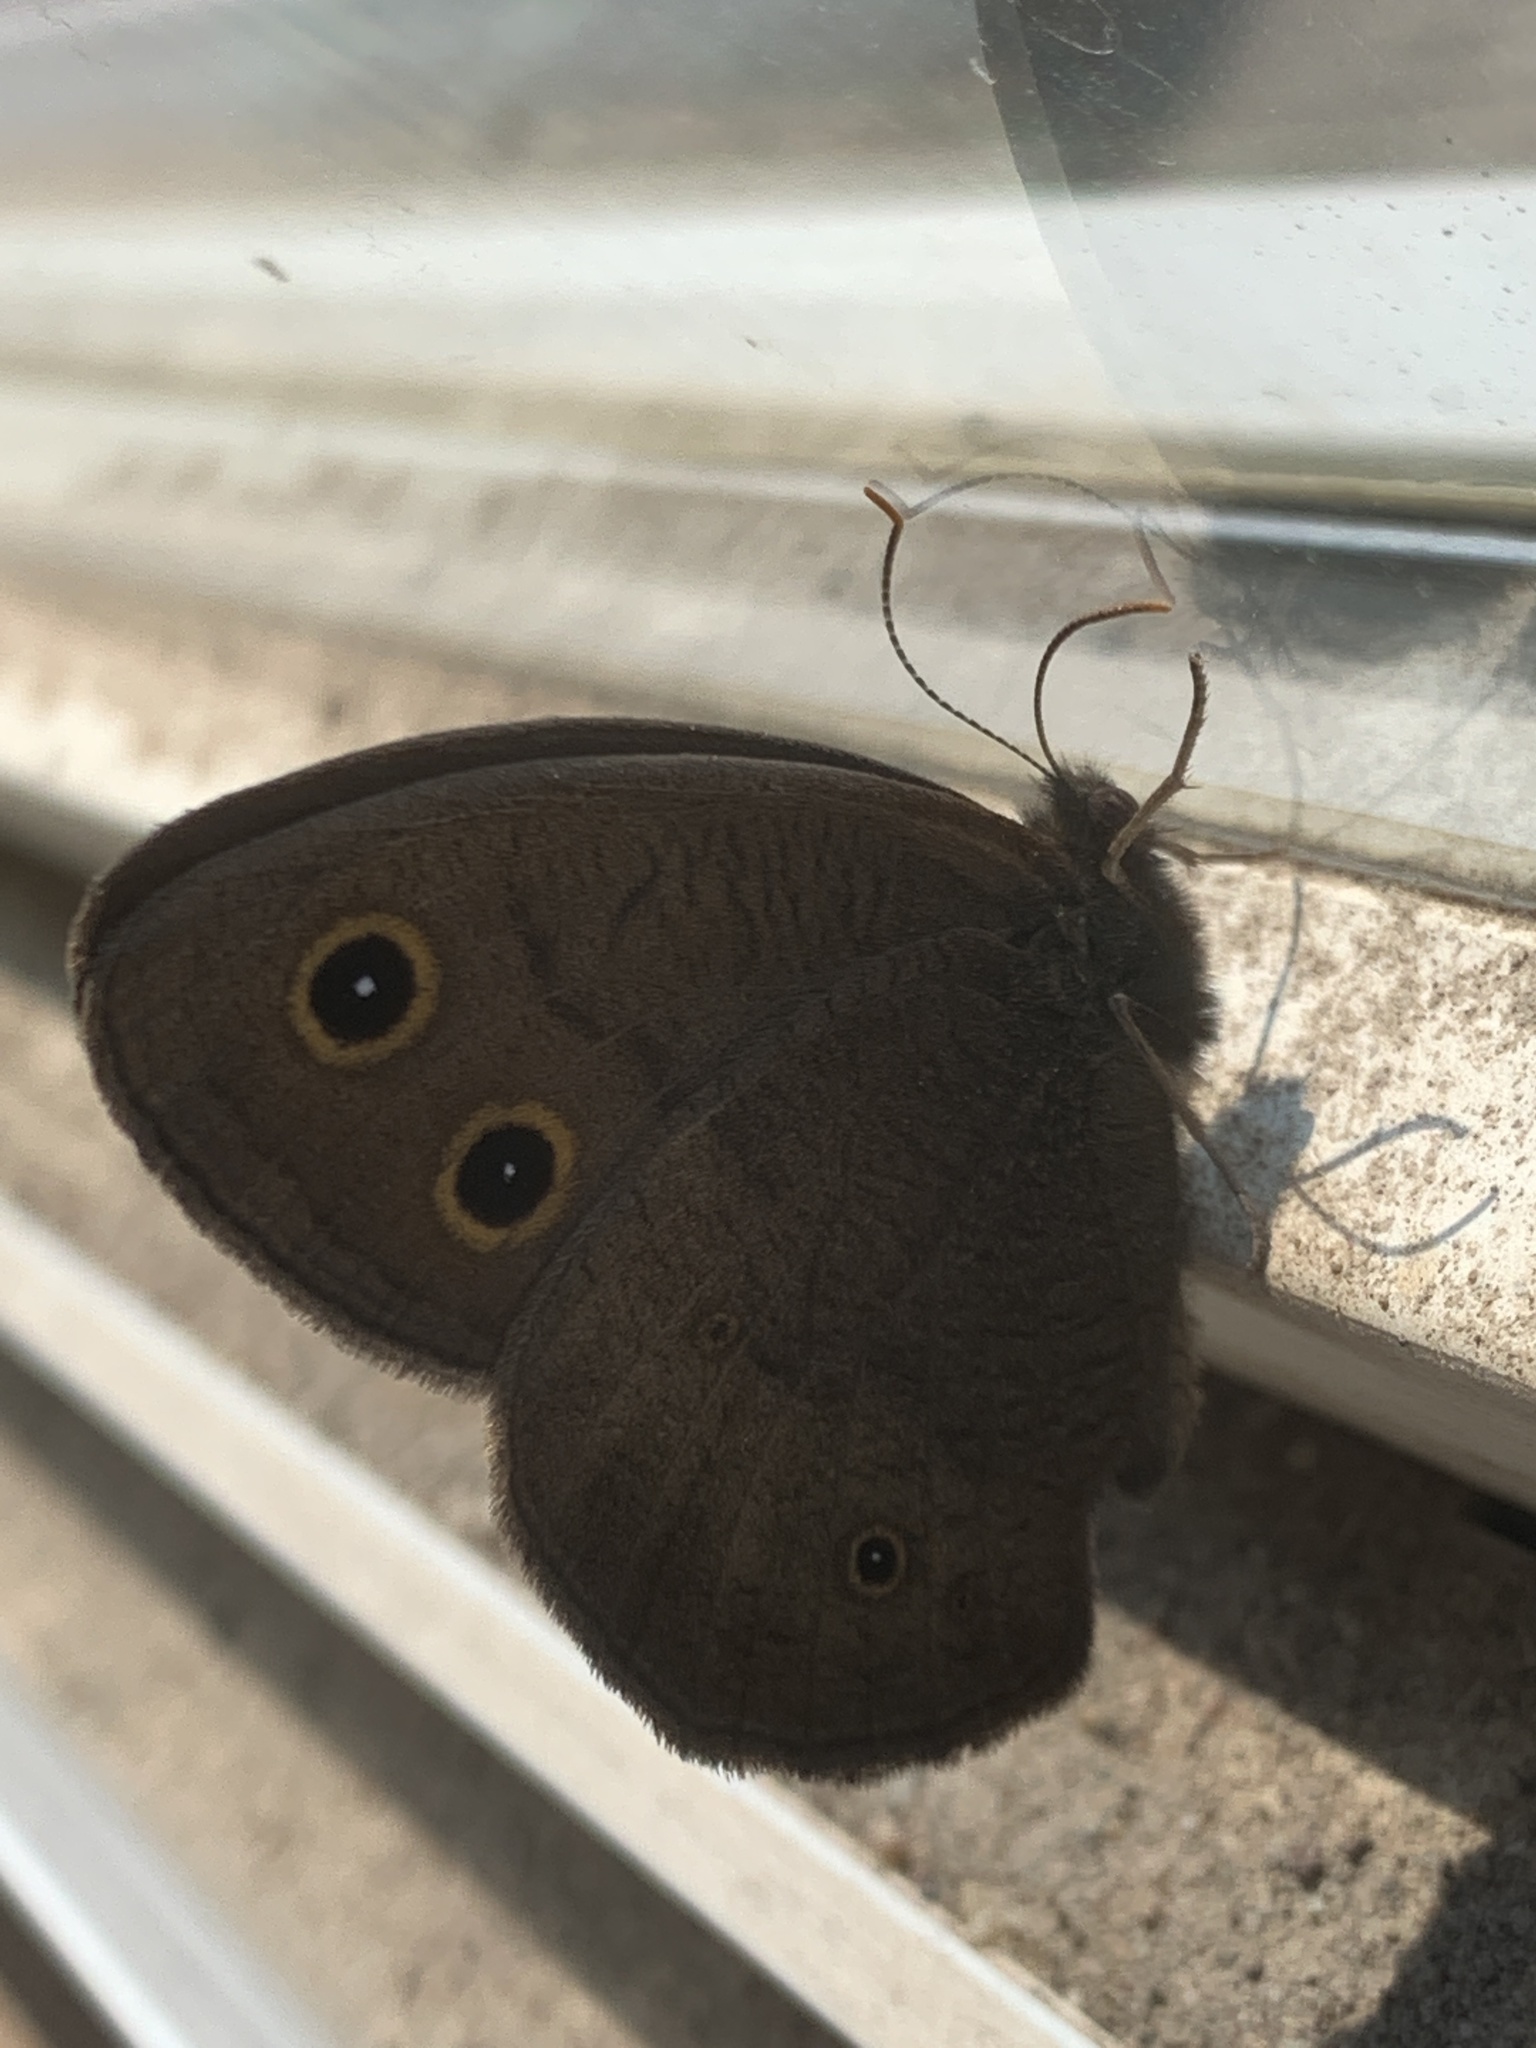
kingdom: Animalia
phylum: Arthropoda
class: Insecta
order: Lepidoptera
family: Nymphalidae
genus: Cercyonis
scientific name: Cercyonis pegala
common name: Common wood-nymph
